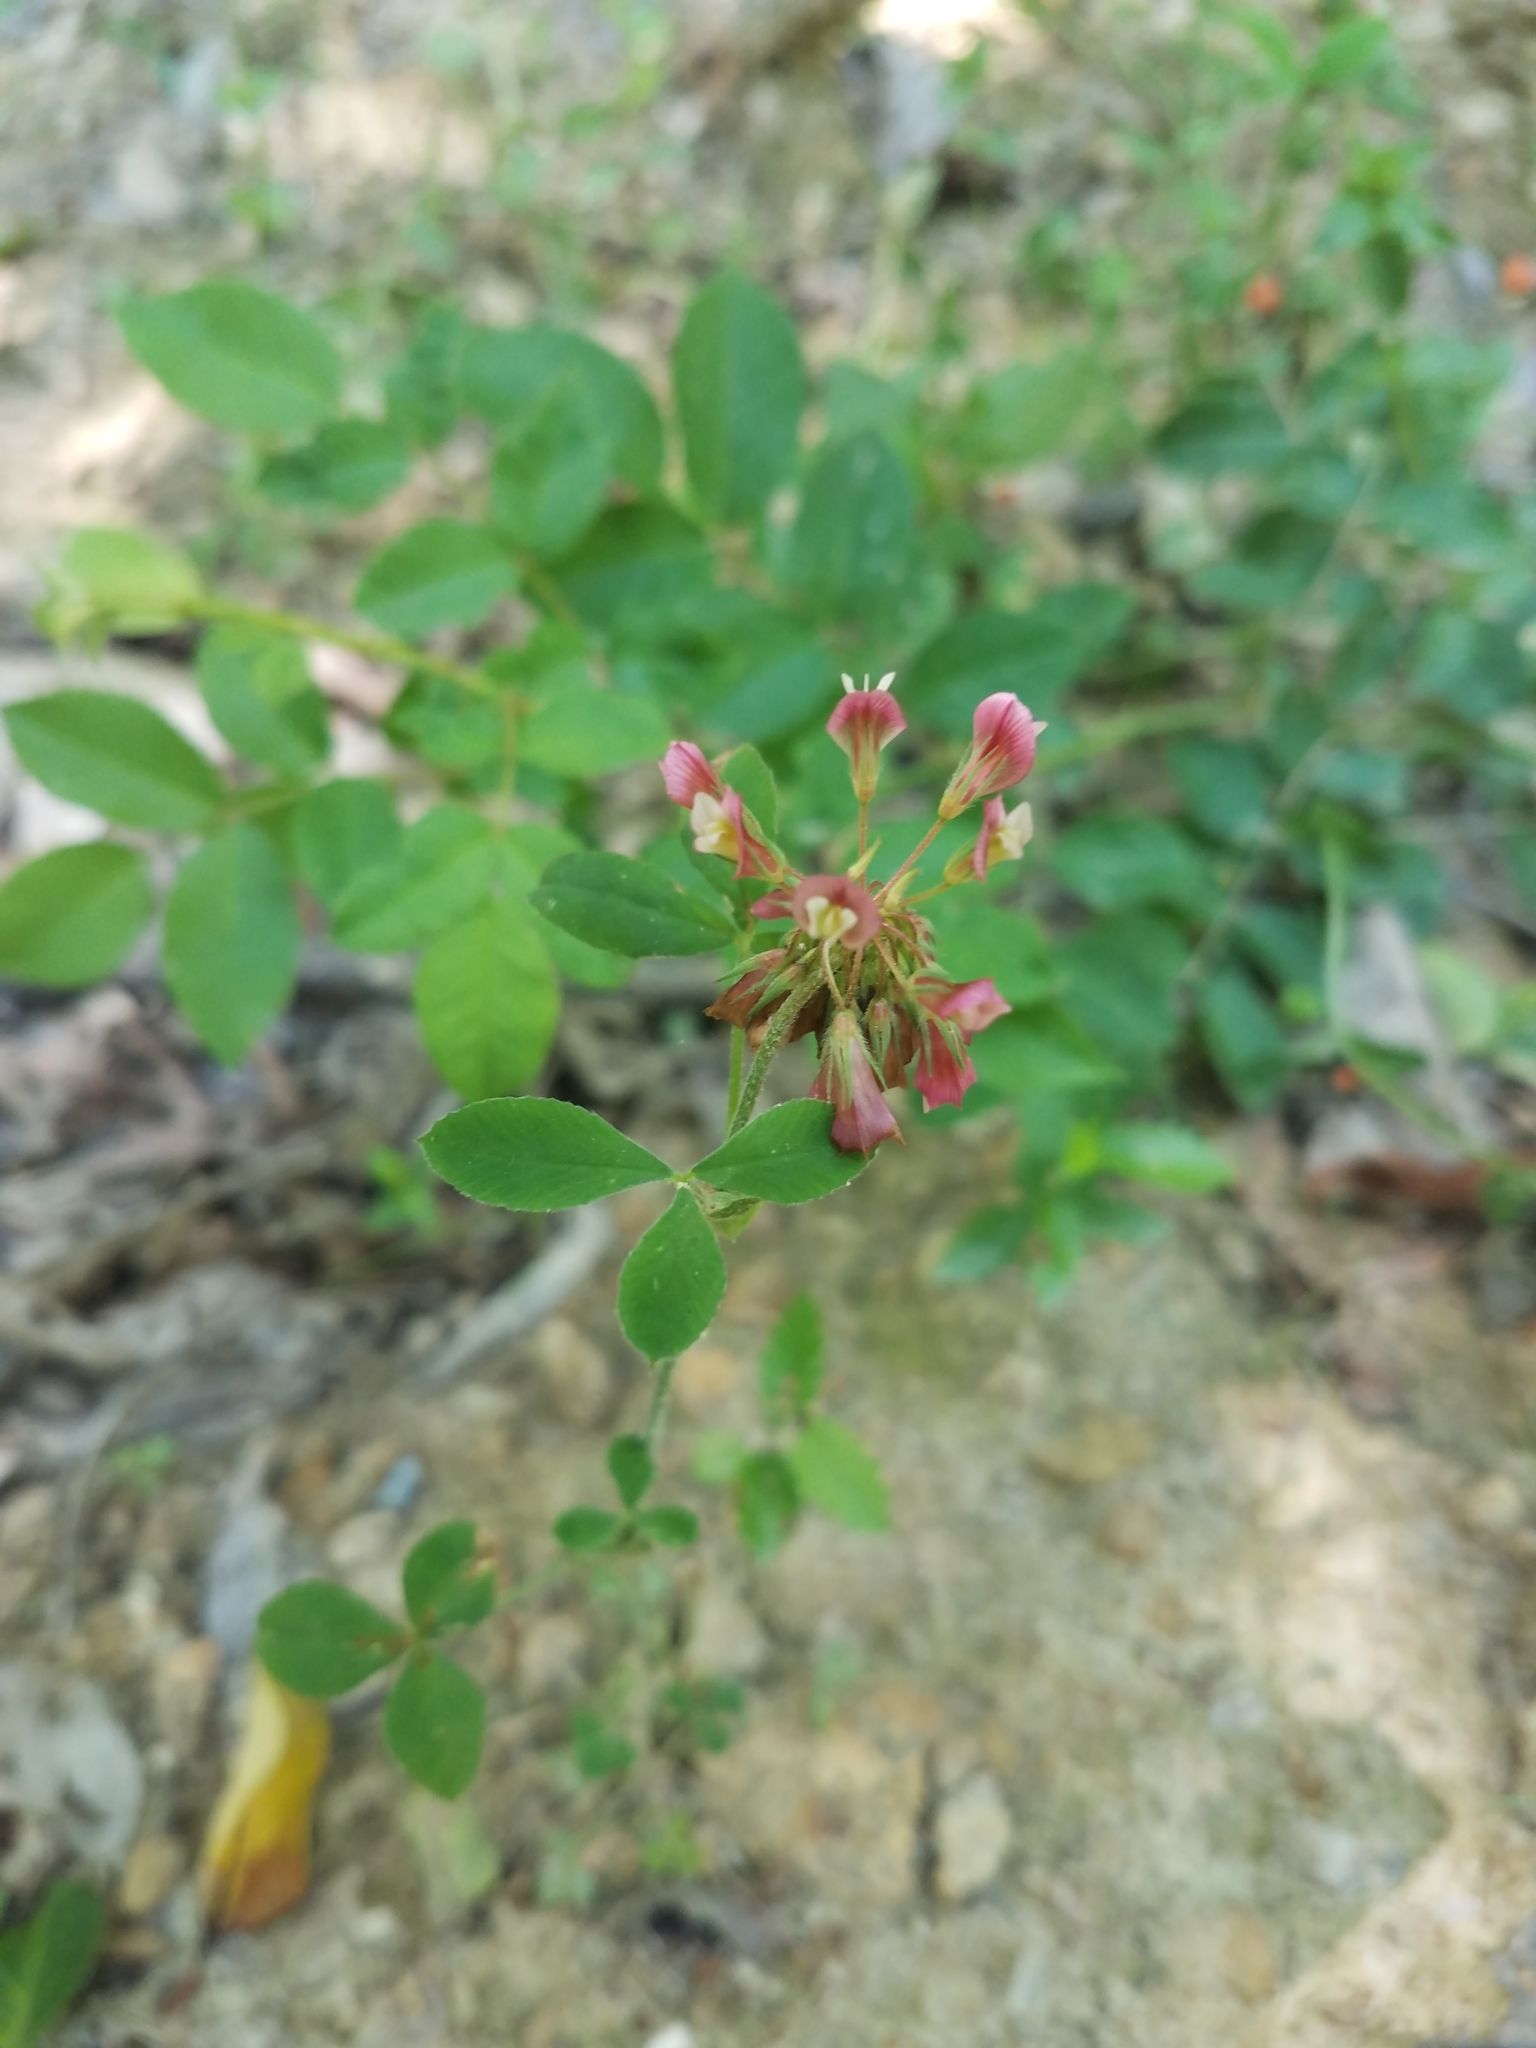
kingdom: Plantae
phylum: Tracheophyta
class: Magnoliopsida
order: Fabales
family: Fabaceae
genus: Trifolium
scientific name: Trifolium reflexum
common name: Buffalo clover
